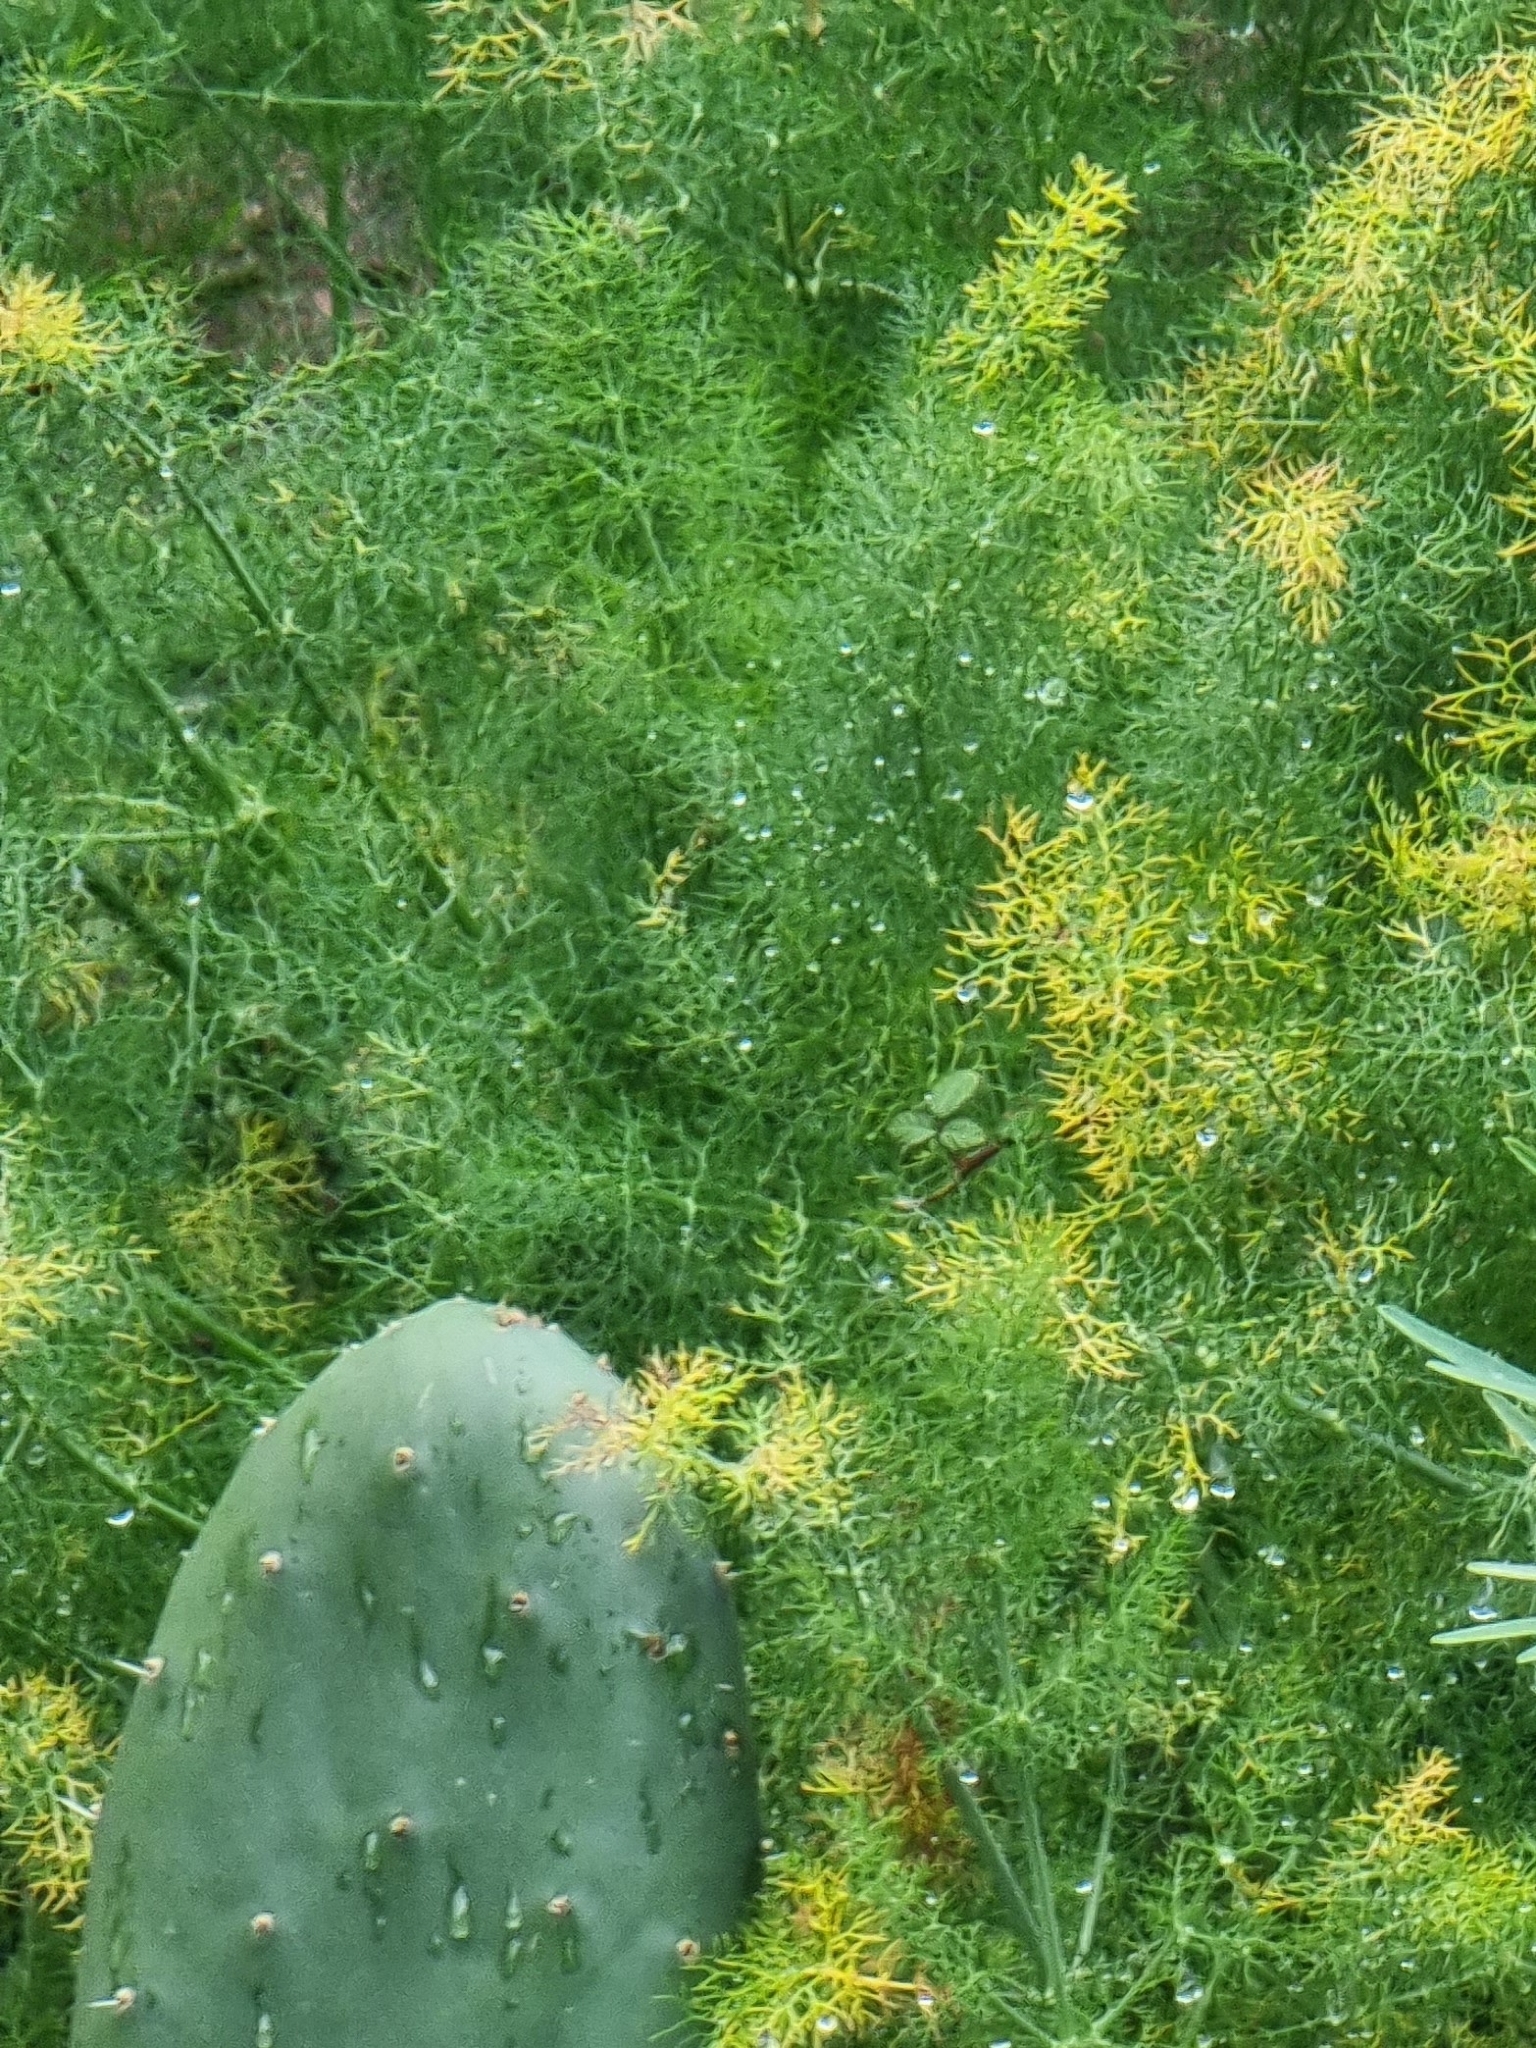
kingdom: Plantae
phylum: Tracheophyta
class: Magnoliopsida
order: Apiales
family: Apiaceae
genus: Foeniculum
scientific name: Foeniculum vulgare
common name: Fennel
